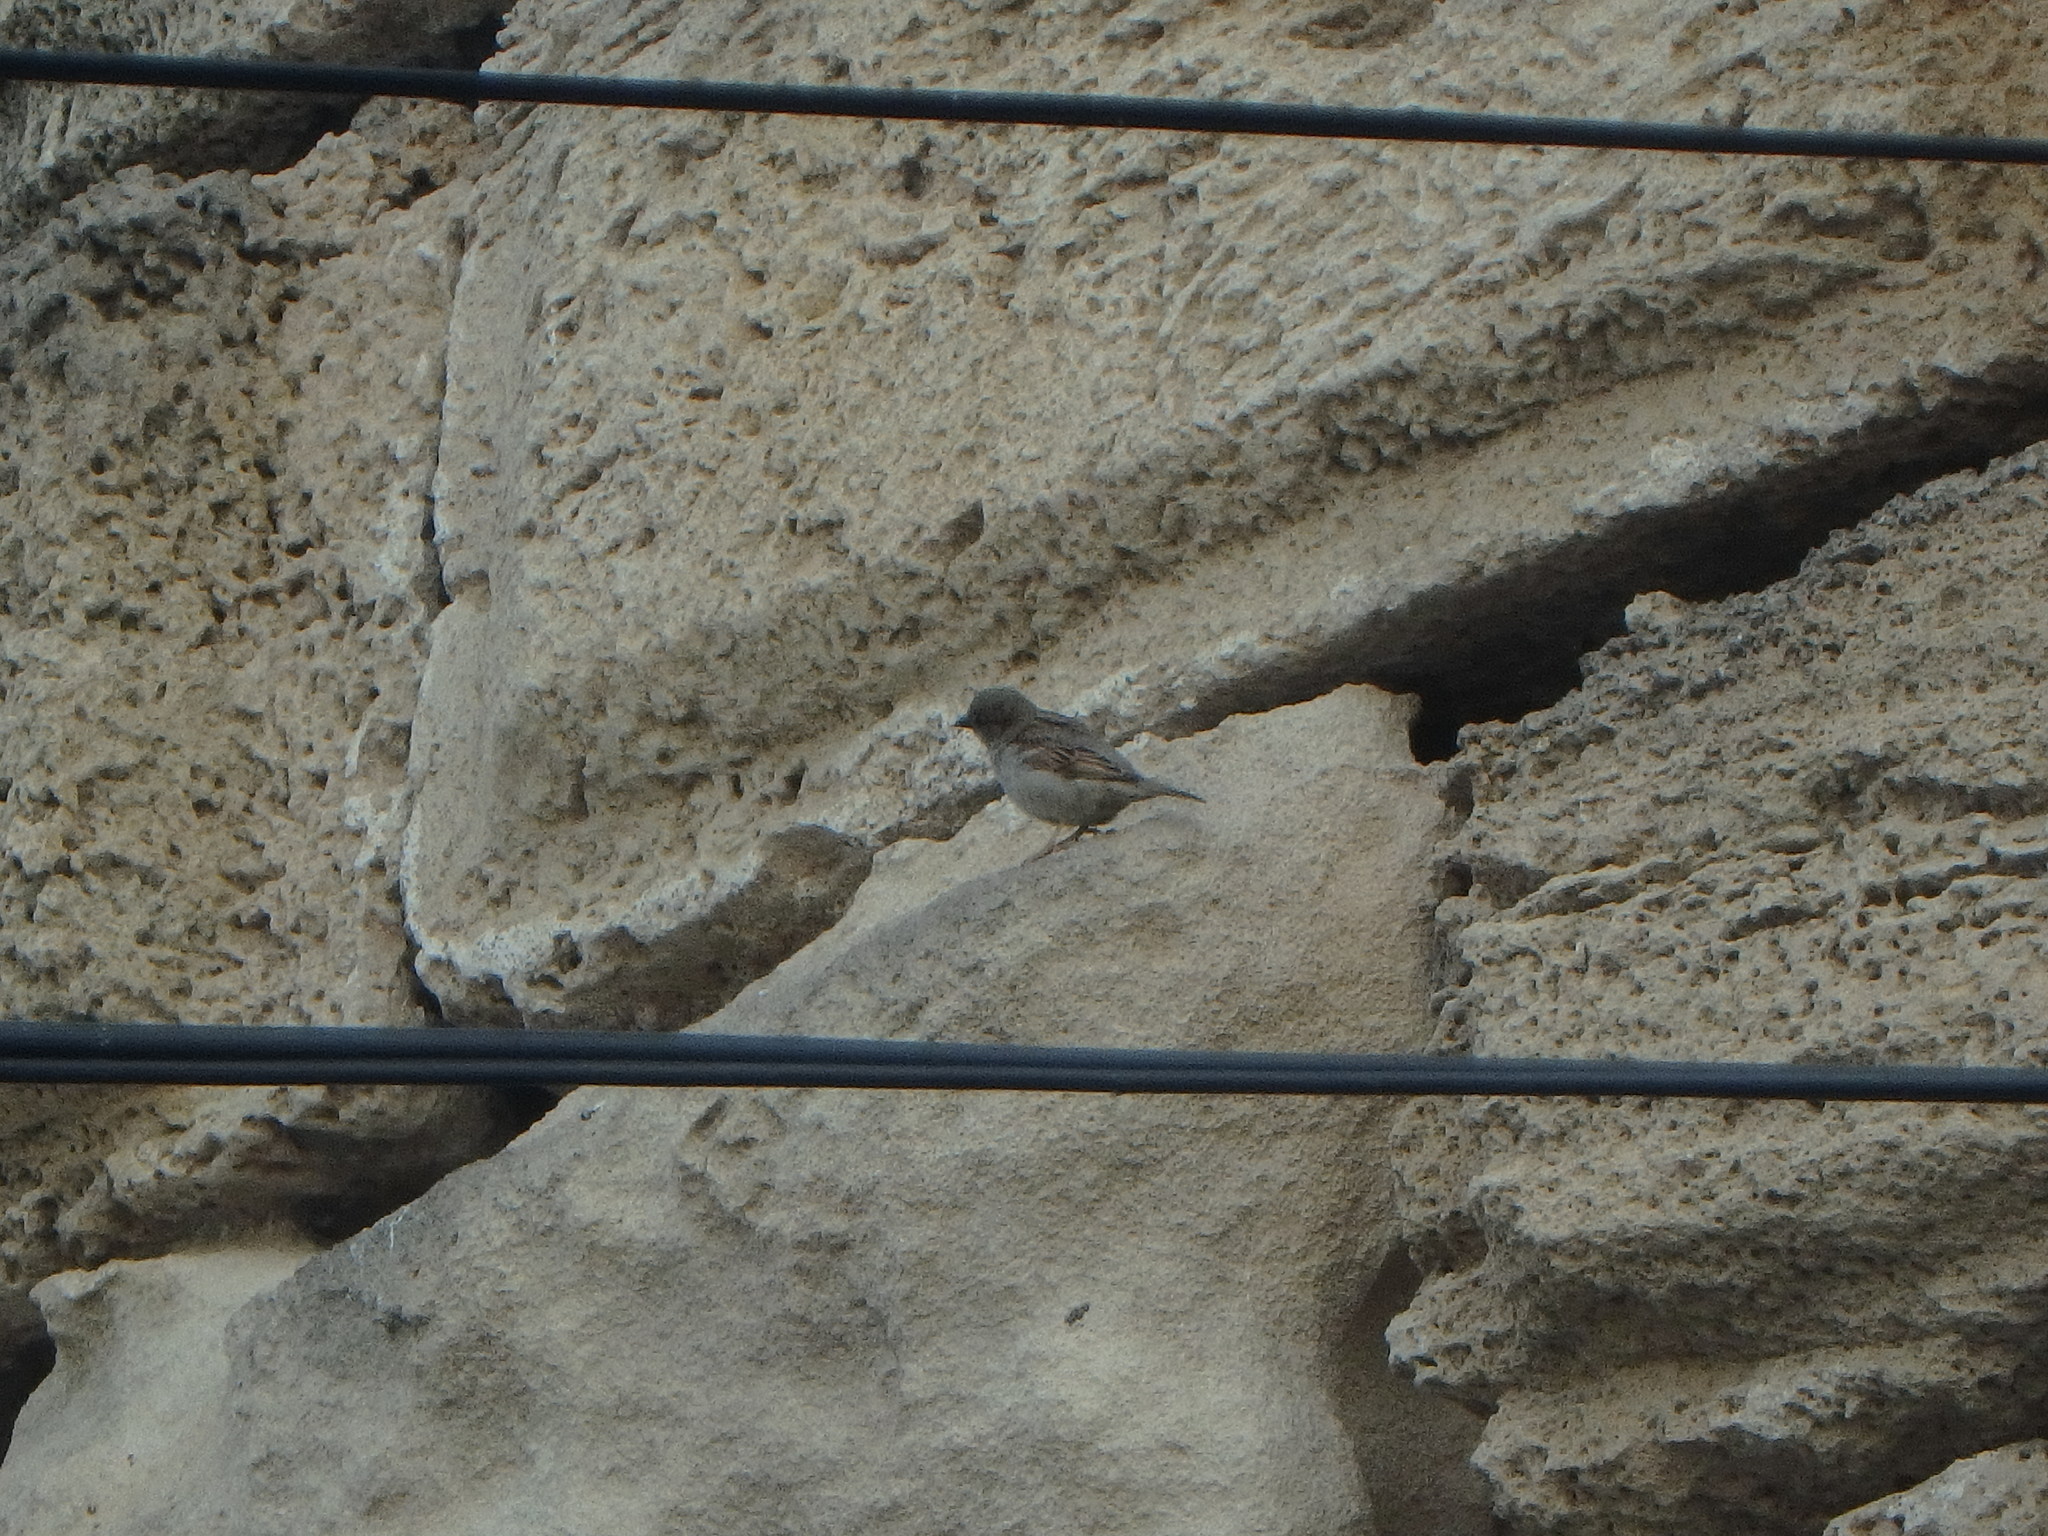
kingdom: Animalia
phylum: Chordata
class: Aves
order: Passeriformes
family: Passeridae
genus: Passer
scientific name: Passer domesticus
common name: House sparrow
